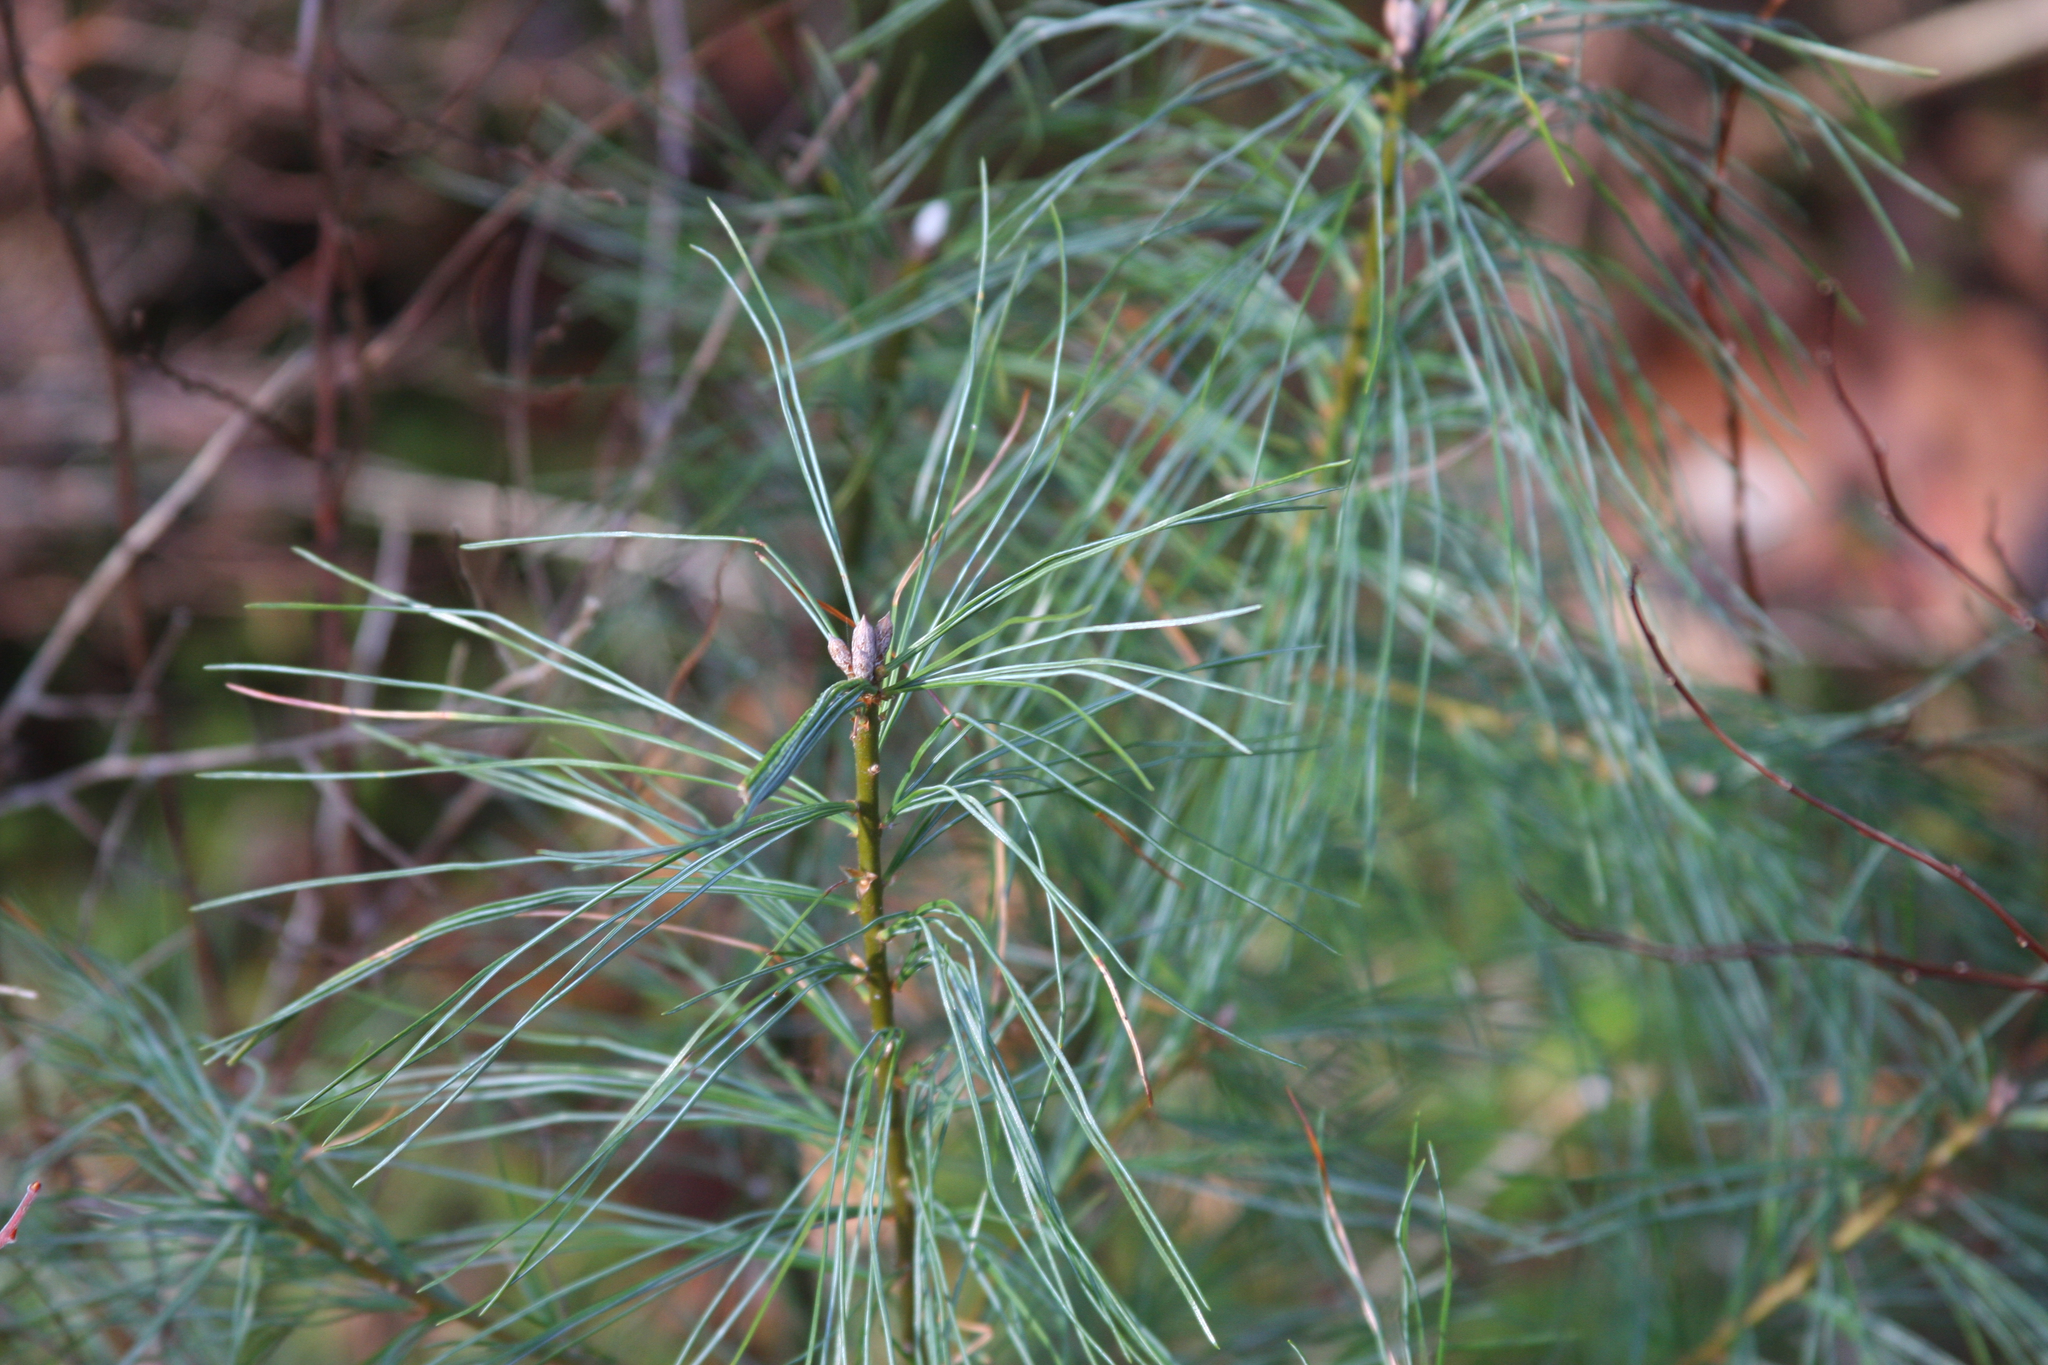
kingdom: Plantae
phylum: Tracheophyta
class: Pinopsida
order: Pinales
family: Pinaceae
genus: Pinus
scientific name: Pinus strobus
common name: Weymouth pine
